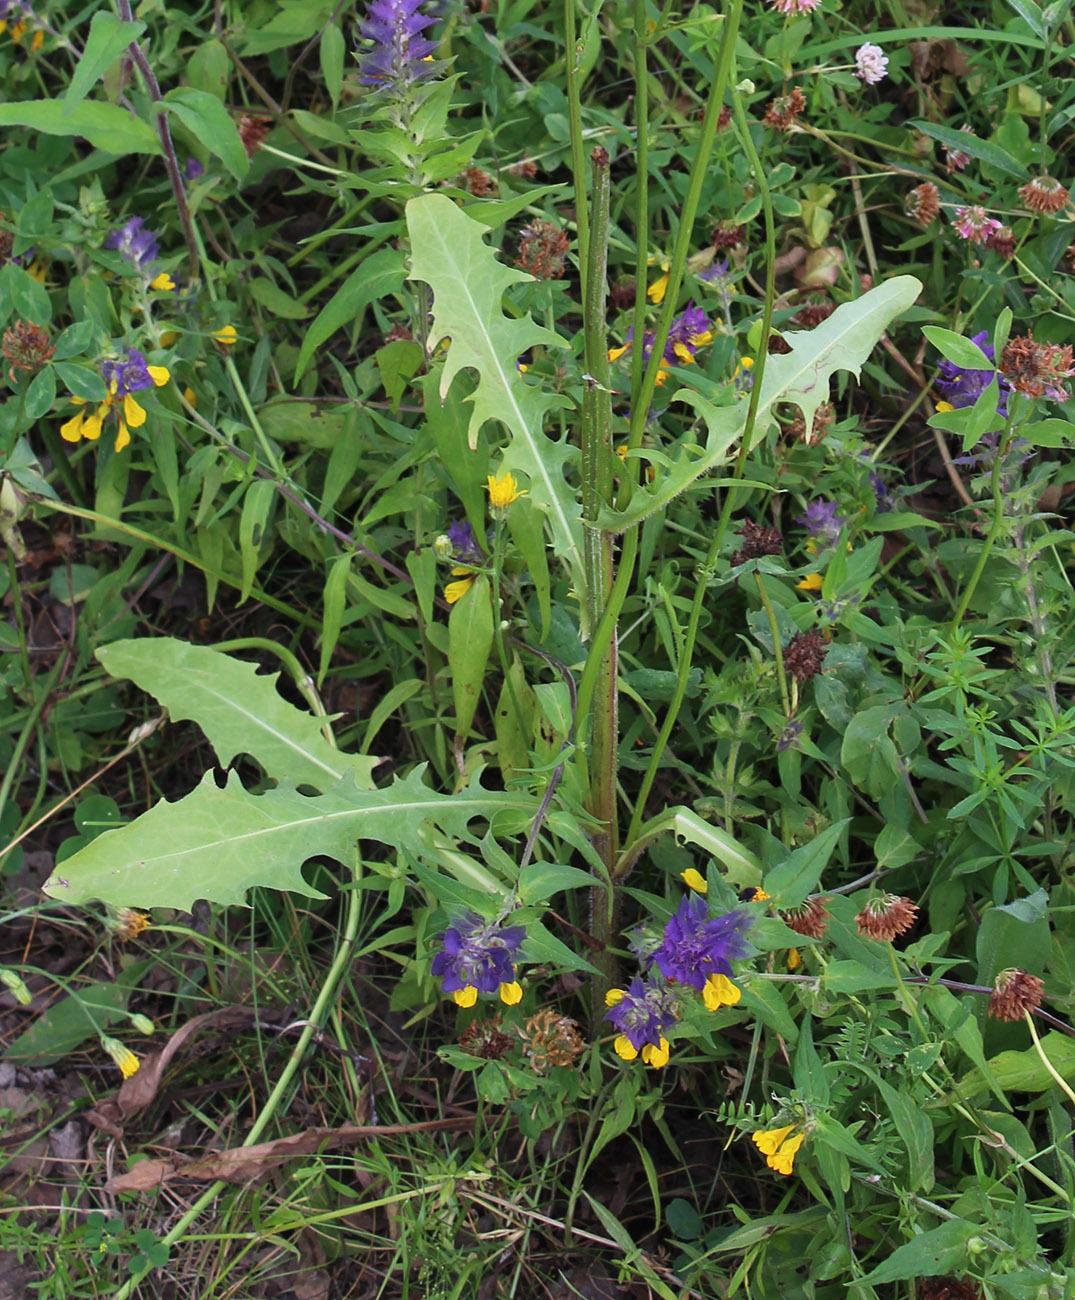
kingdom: Plantae
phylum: Tracheophyta
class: Magnoliopsida
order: Asterales
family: Asteraceae
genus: Crepis
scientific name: Crepis biennis
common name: Rough hawk's-beard
